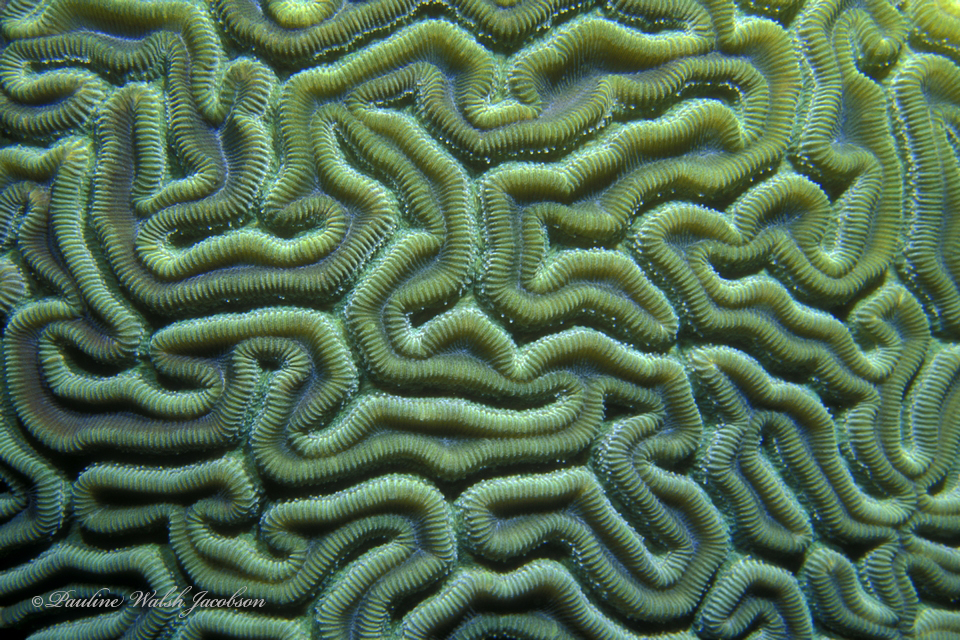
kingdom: Animalia
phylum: Cnidaria
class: Anthozoa
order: Scleractinia
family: Faviidae
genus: Diploria
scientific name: Diploria labyrinthiformis
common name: Grooved brain coral
